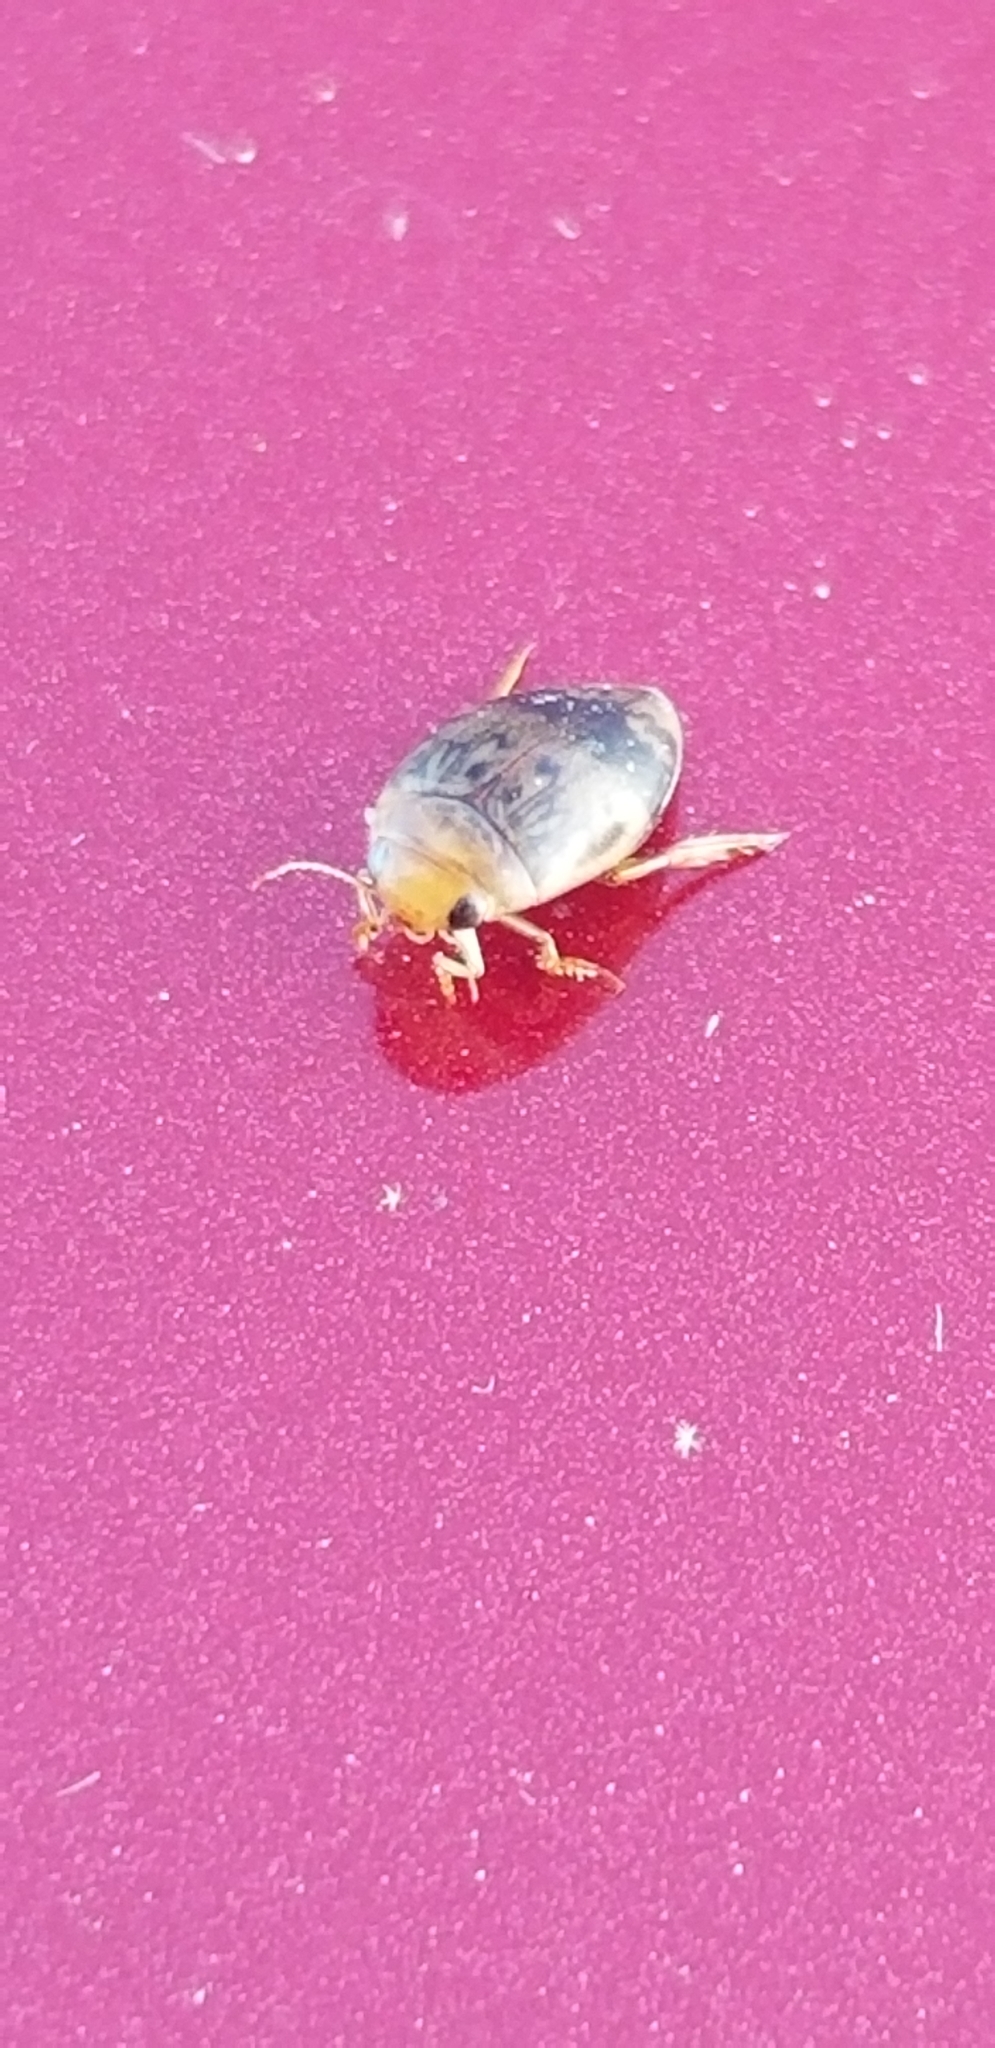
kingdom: Animalia
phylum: Arthropoda
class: Insecta
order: Coleoptera
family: Dytiscidae
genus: Laccophilus
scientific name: Laccophilus fasciatus
